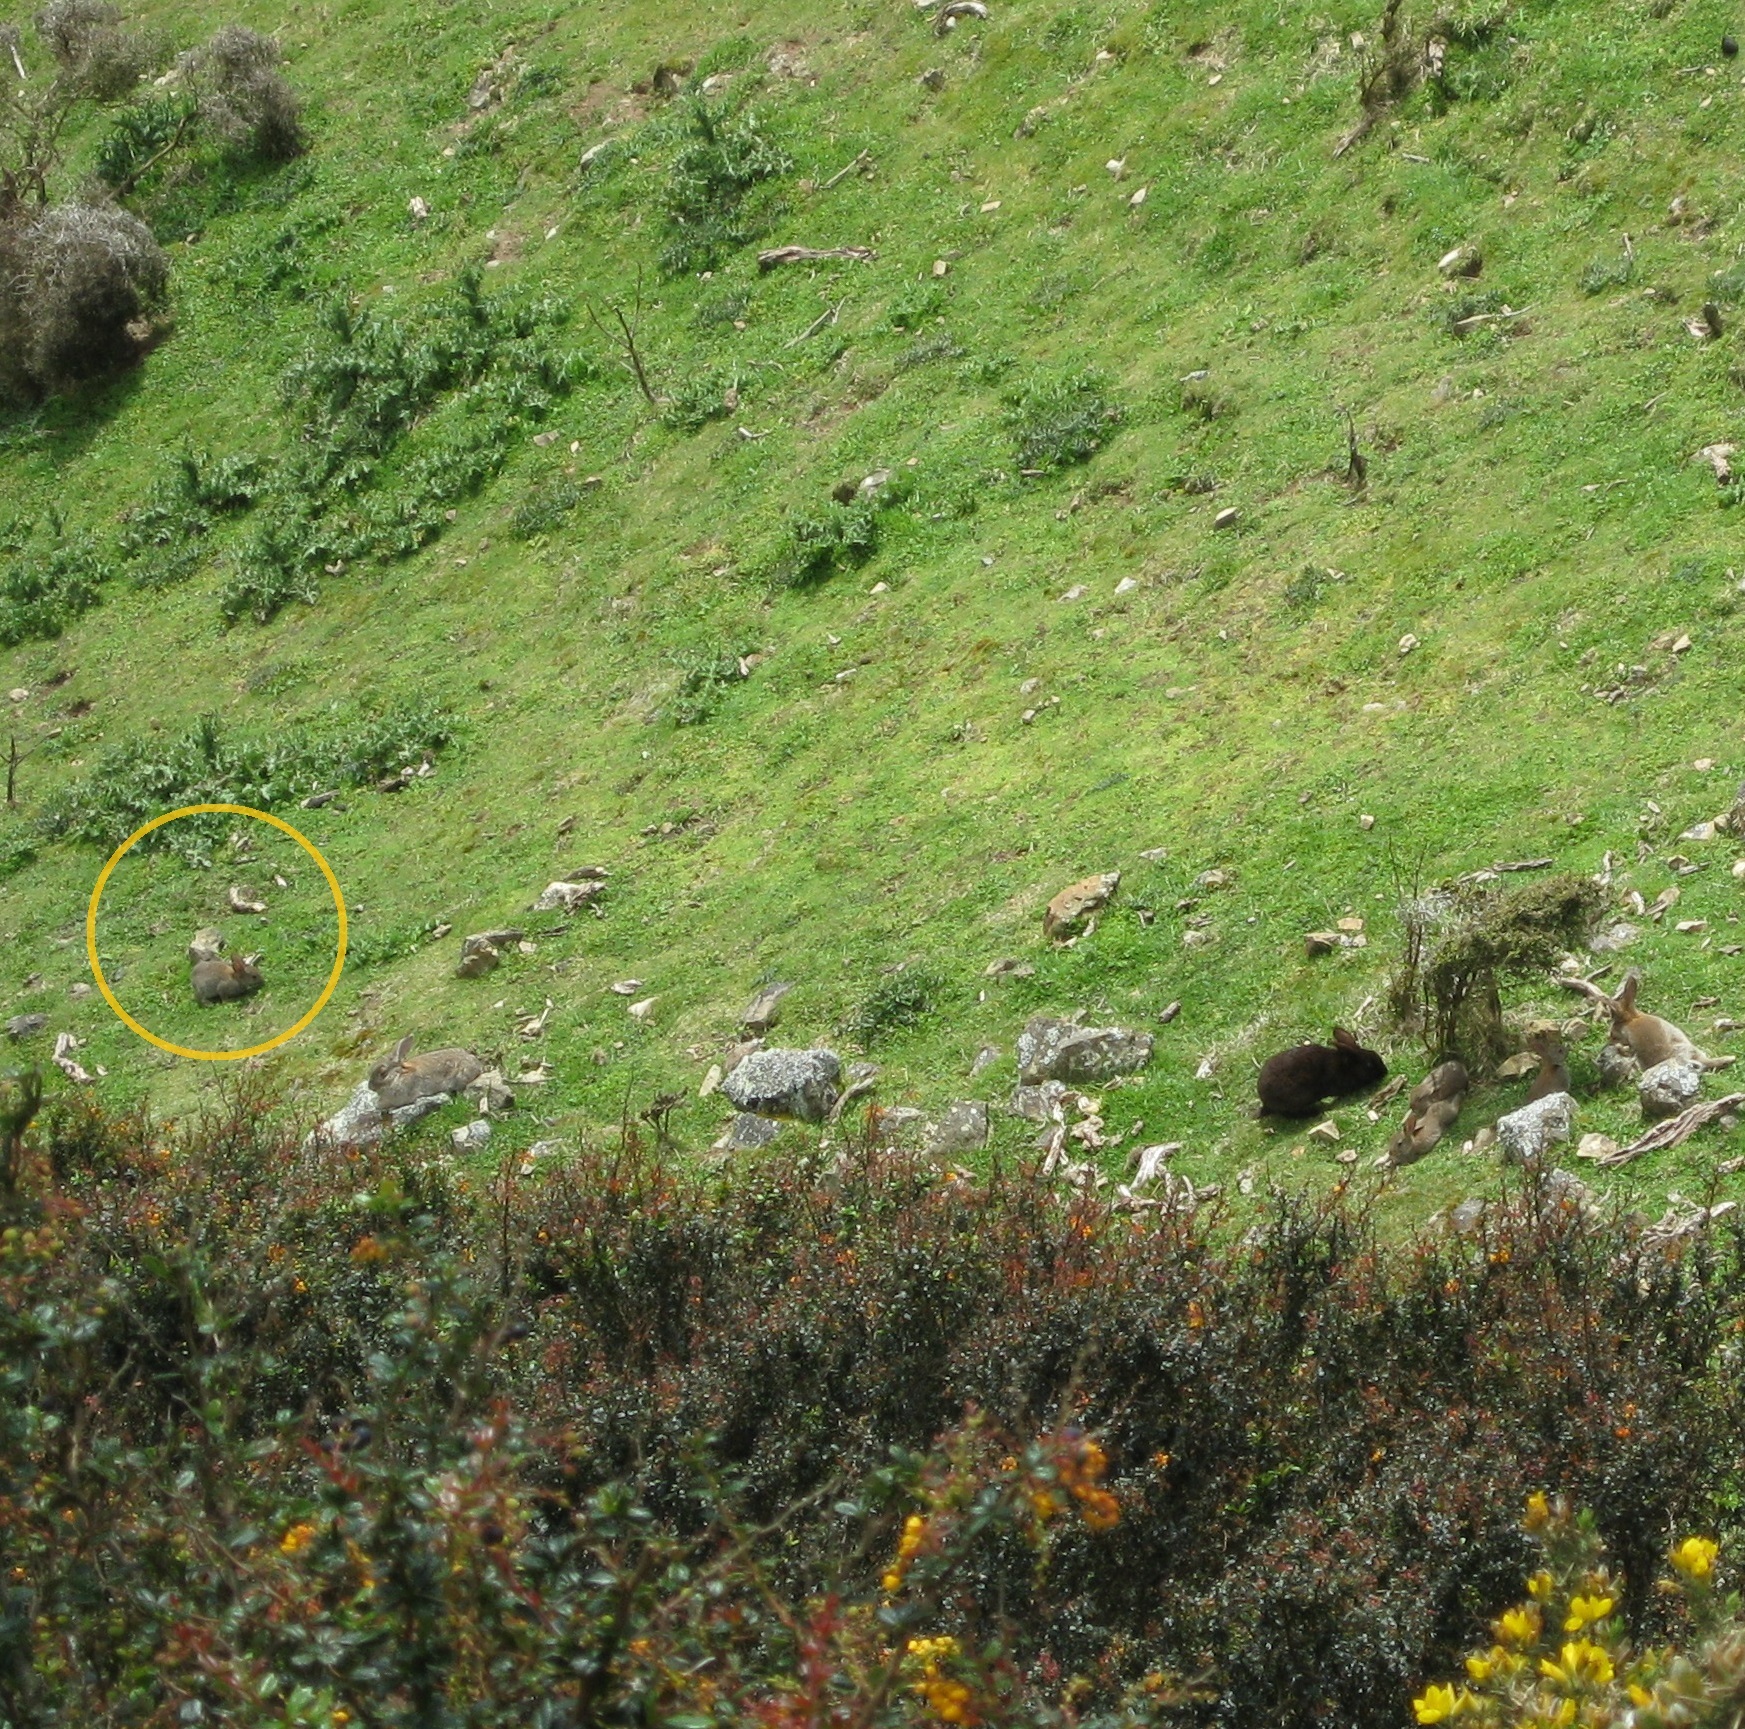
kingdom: Animalia
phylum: Chordata
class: Mammalia
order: Lagomorpha
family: Leporidae
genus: Oryctolagus
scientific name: Oryctolagus cuniculus
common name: European rabbit
